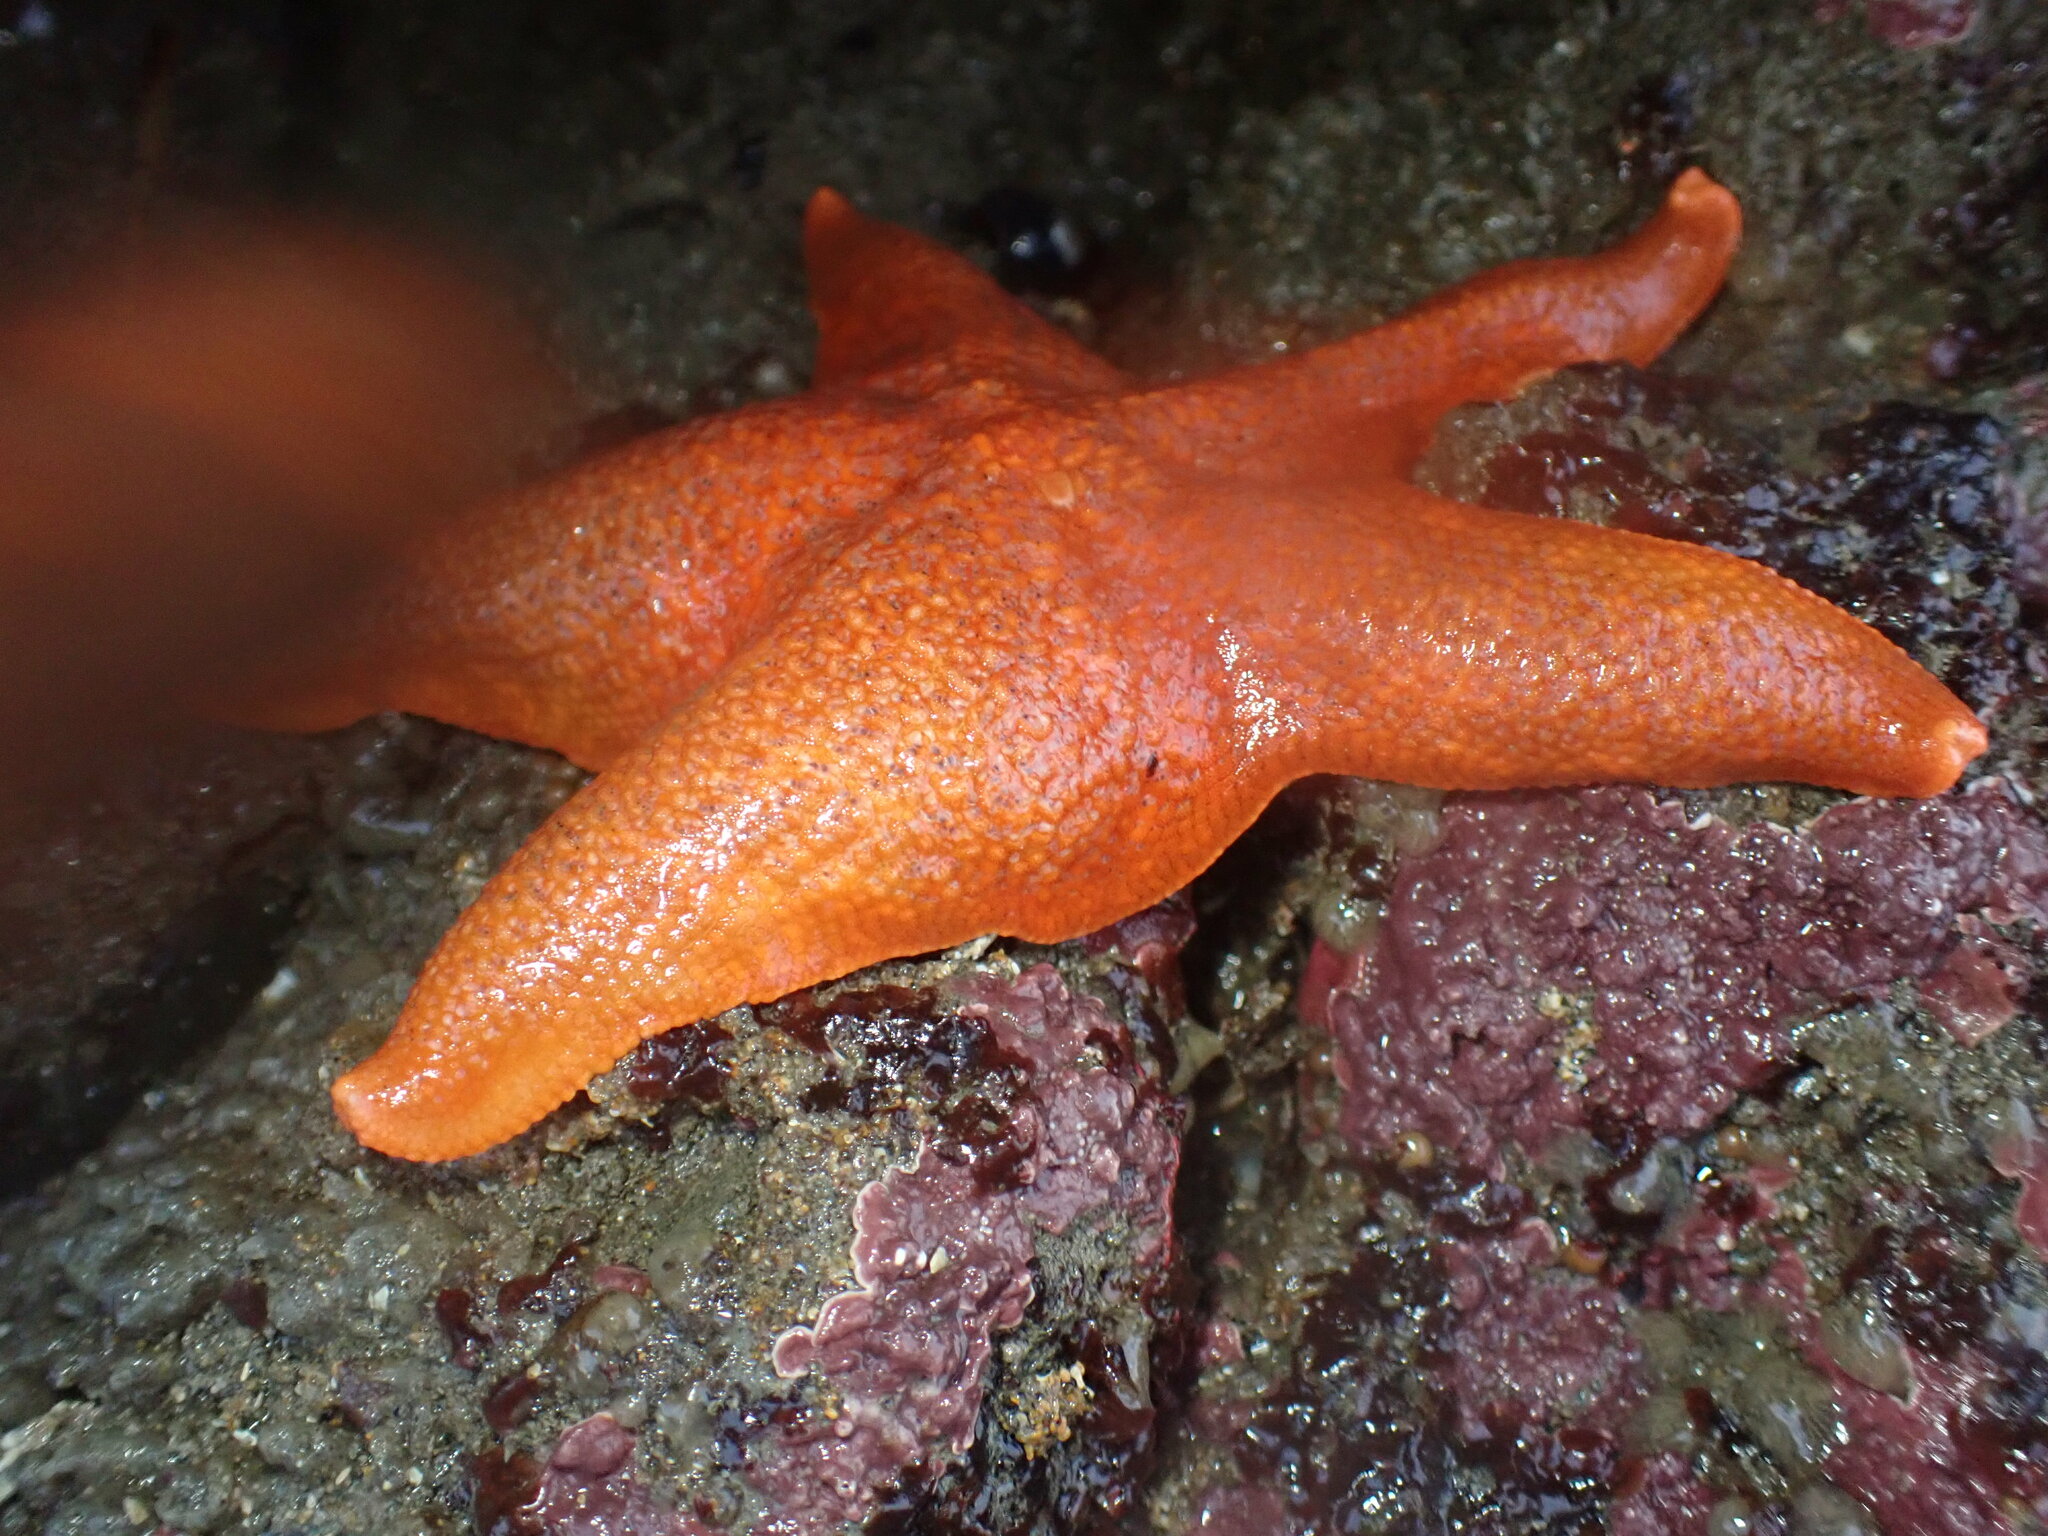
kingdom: Animalia
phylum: Echinodermata
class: Asteroidea
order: Valvatida
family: Asterinidae
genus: Patiria
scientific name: Patiria miniata
